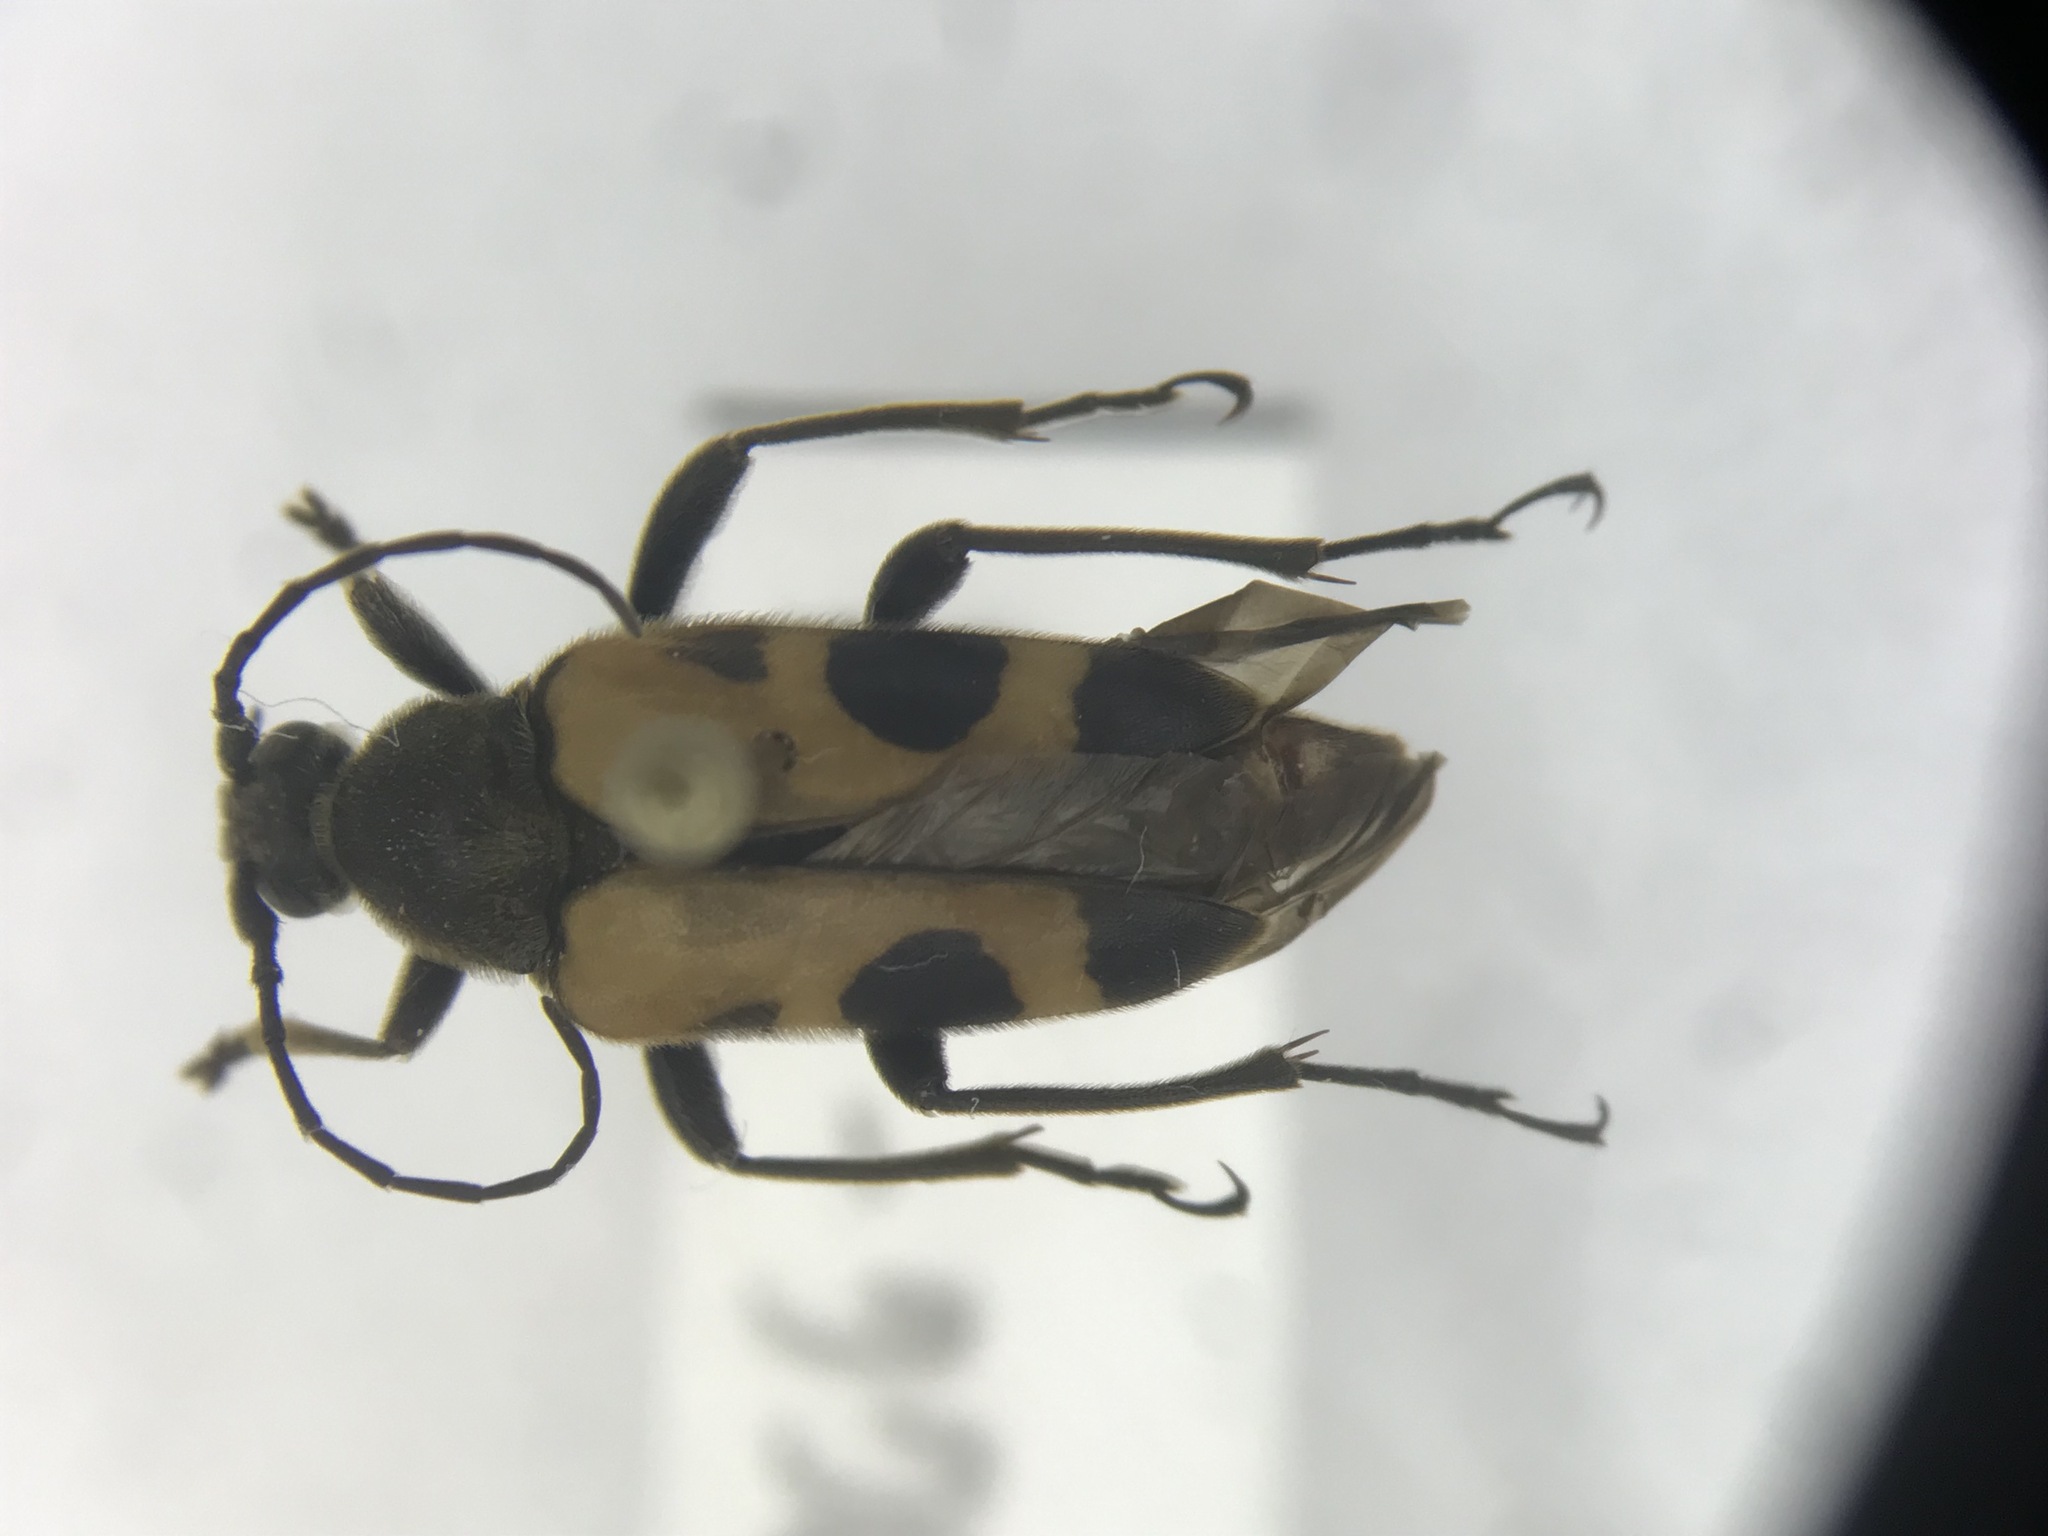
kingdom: Animalia
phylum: Arthropoda
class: Insecta
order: Coleoptera
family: Cerambycidae
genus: Judolia
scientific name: Judolia cordifera
